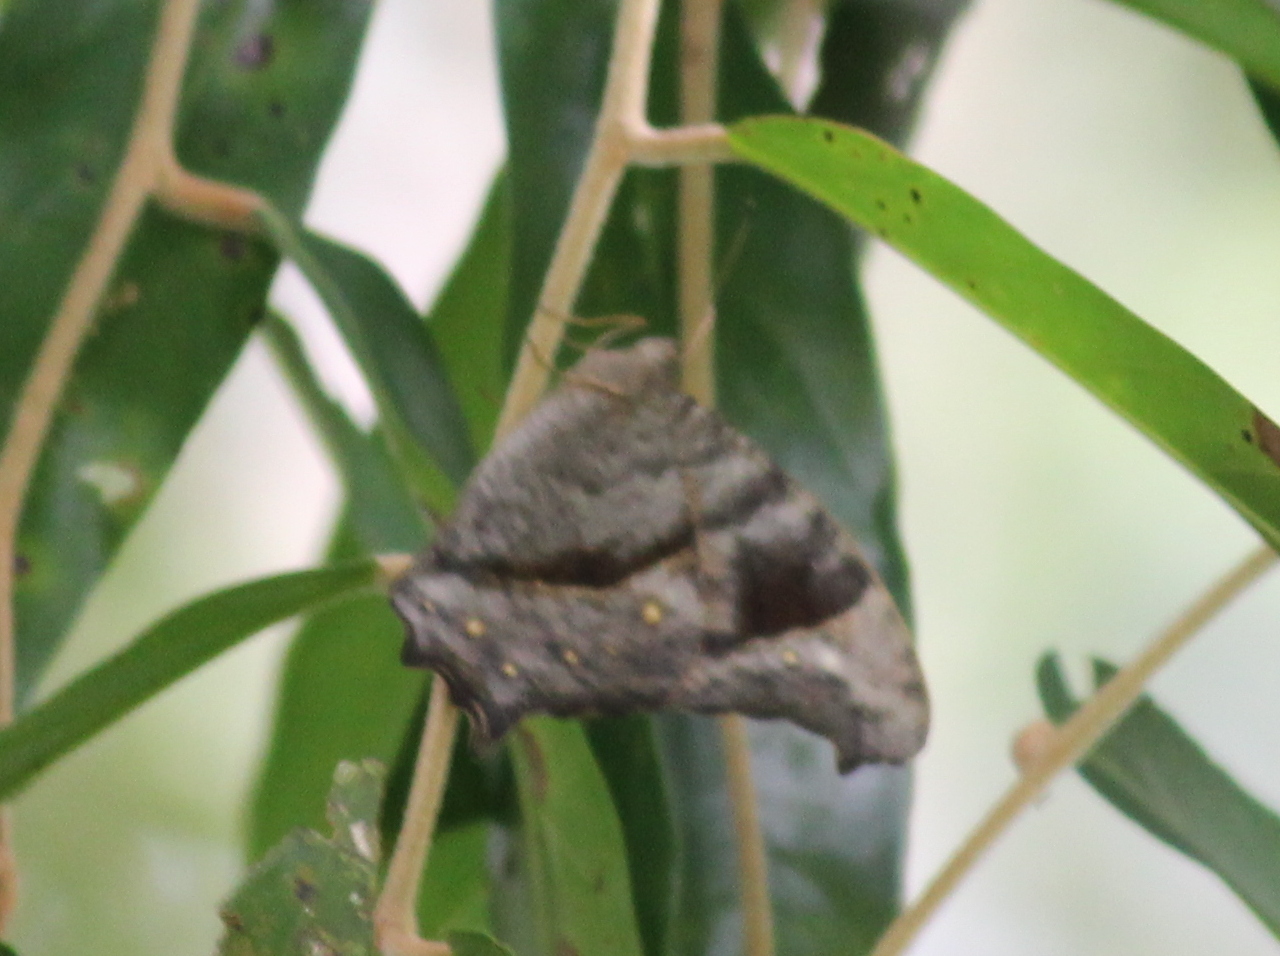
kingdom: Animalia
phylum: Arthropoda
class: Insecta
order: Lepidoptera
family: Nymphalidae
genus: Melanitis
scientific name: Melanitis leda
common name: Twilight brown
